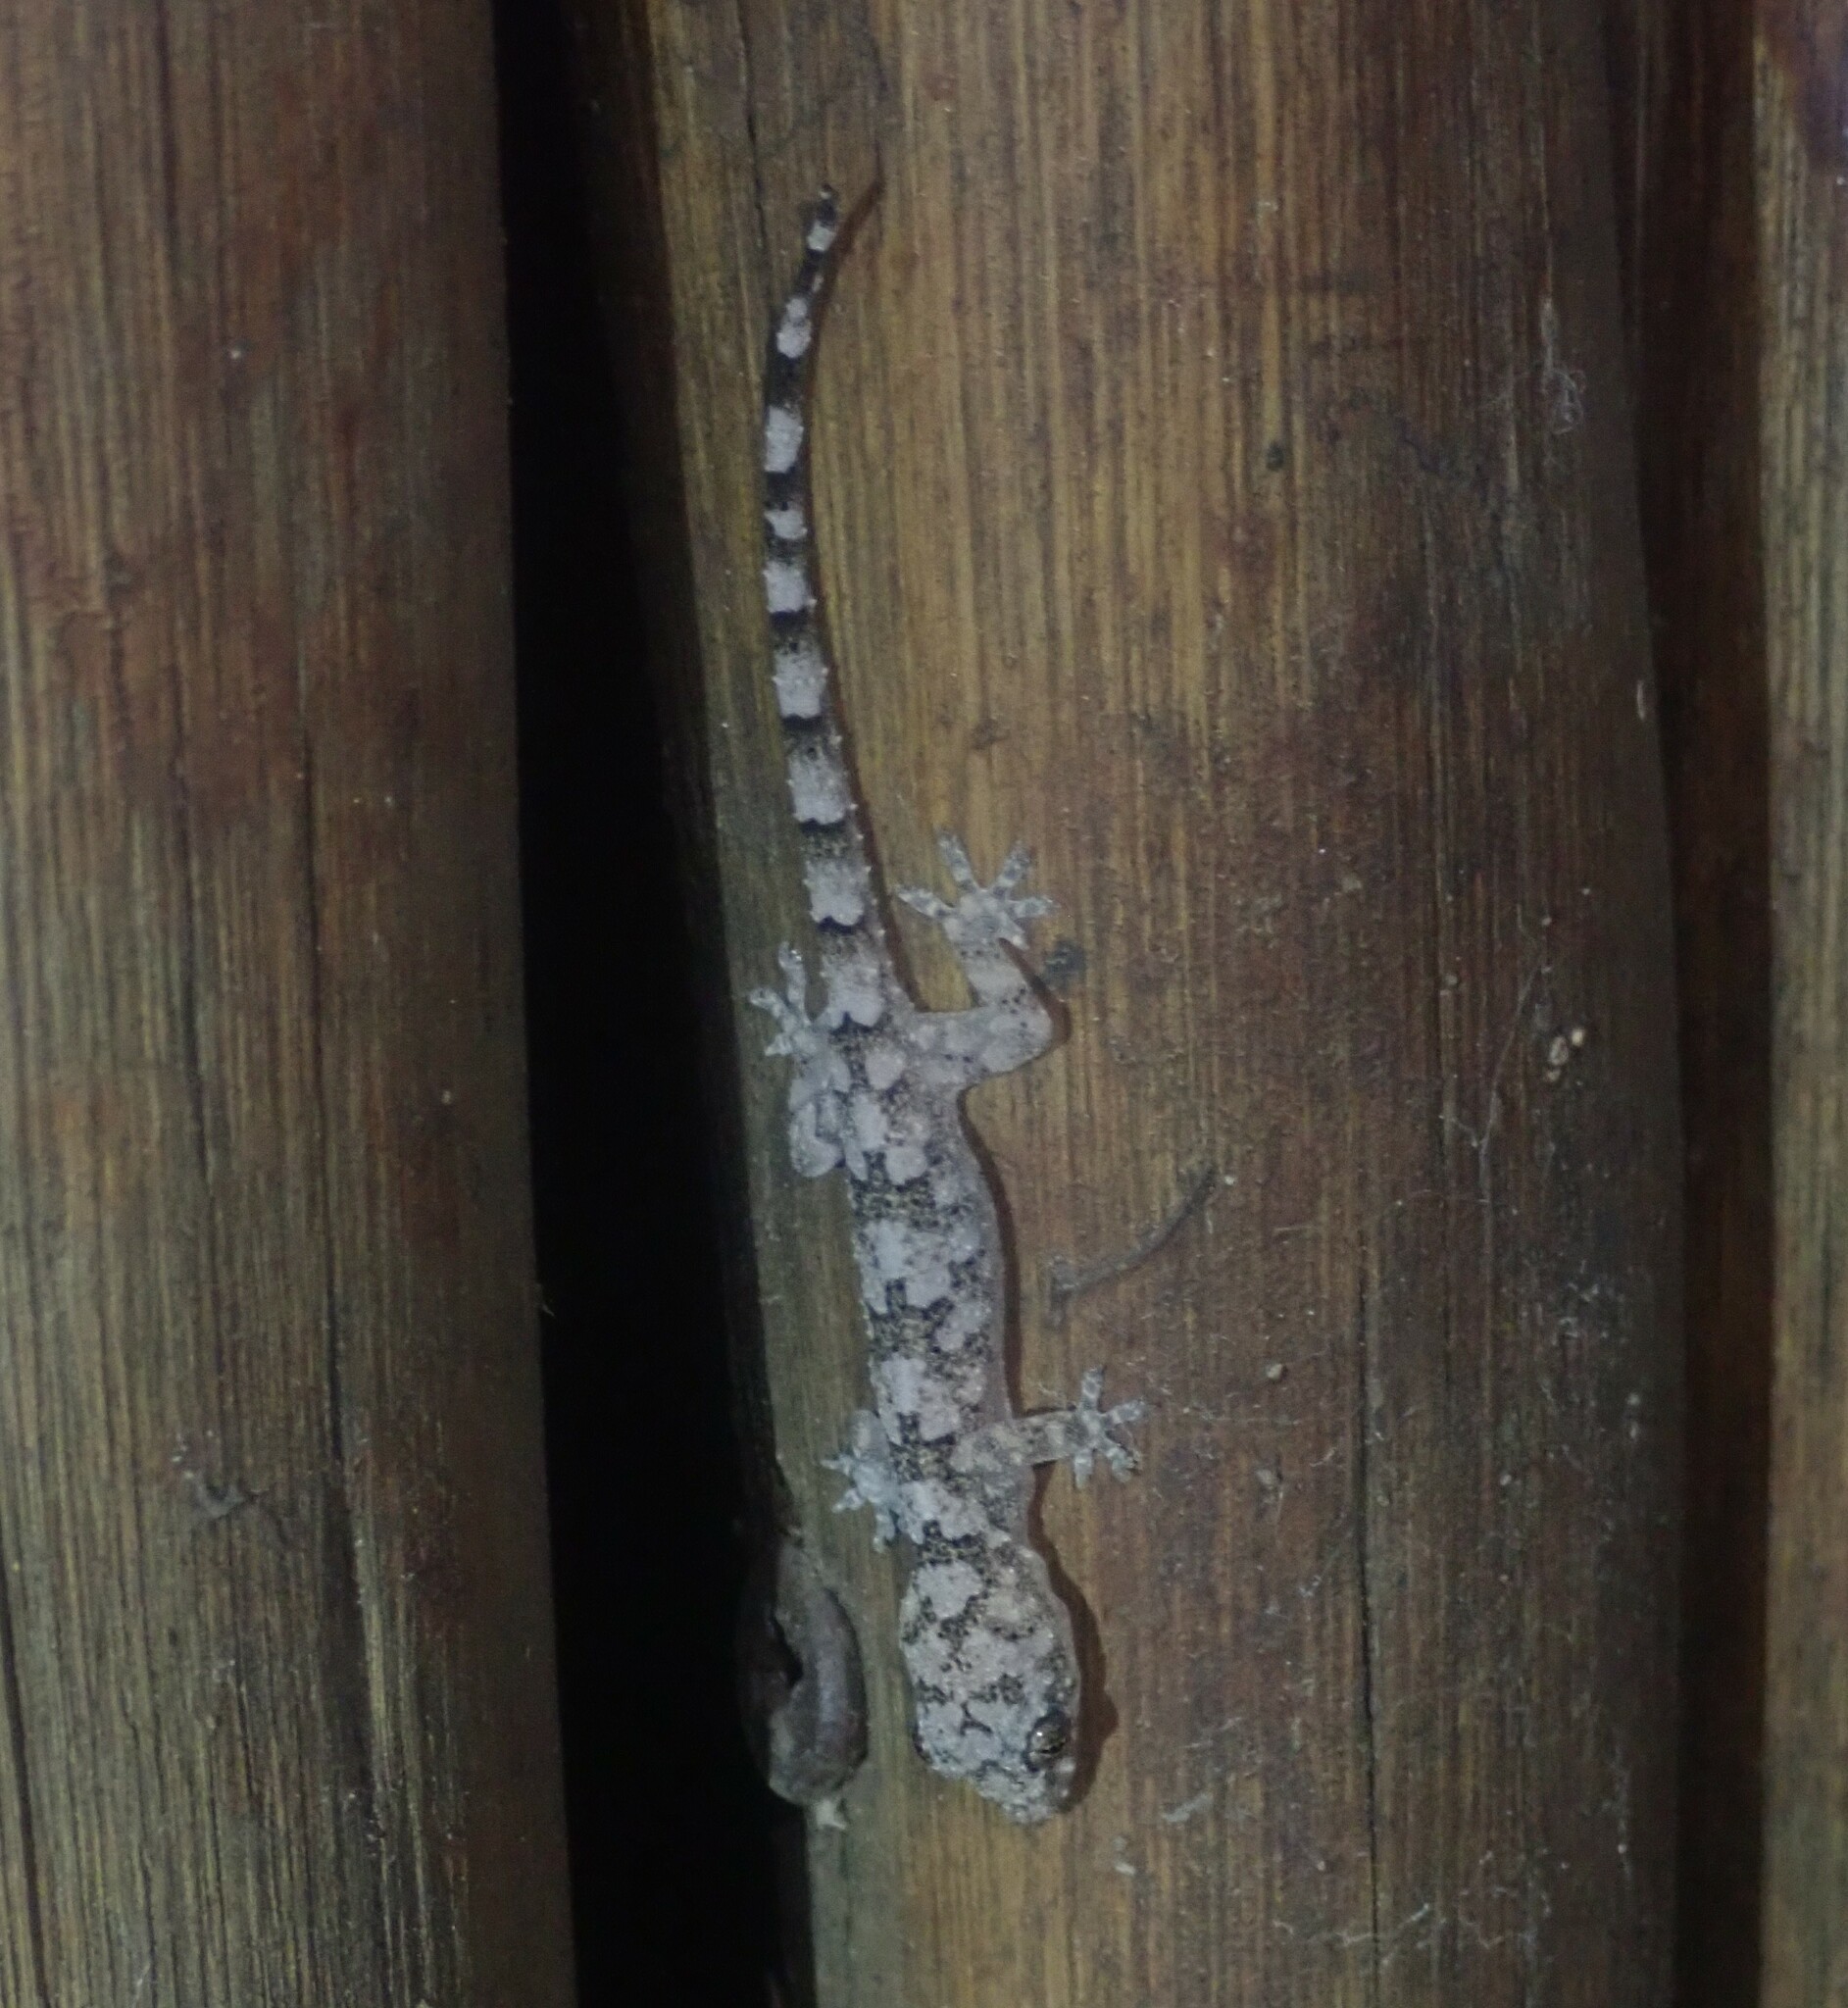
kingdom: Animalia
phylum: Chordata
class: Squamata
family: Gekkonidae
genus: Hemidactylus
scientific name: Hemidactylus mabouia
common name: House gecko
